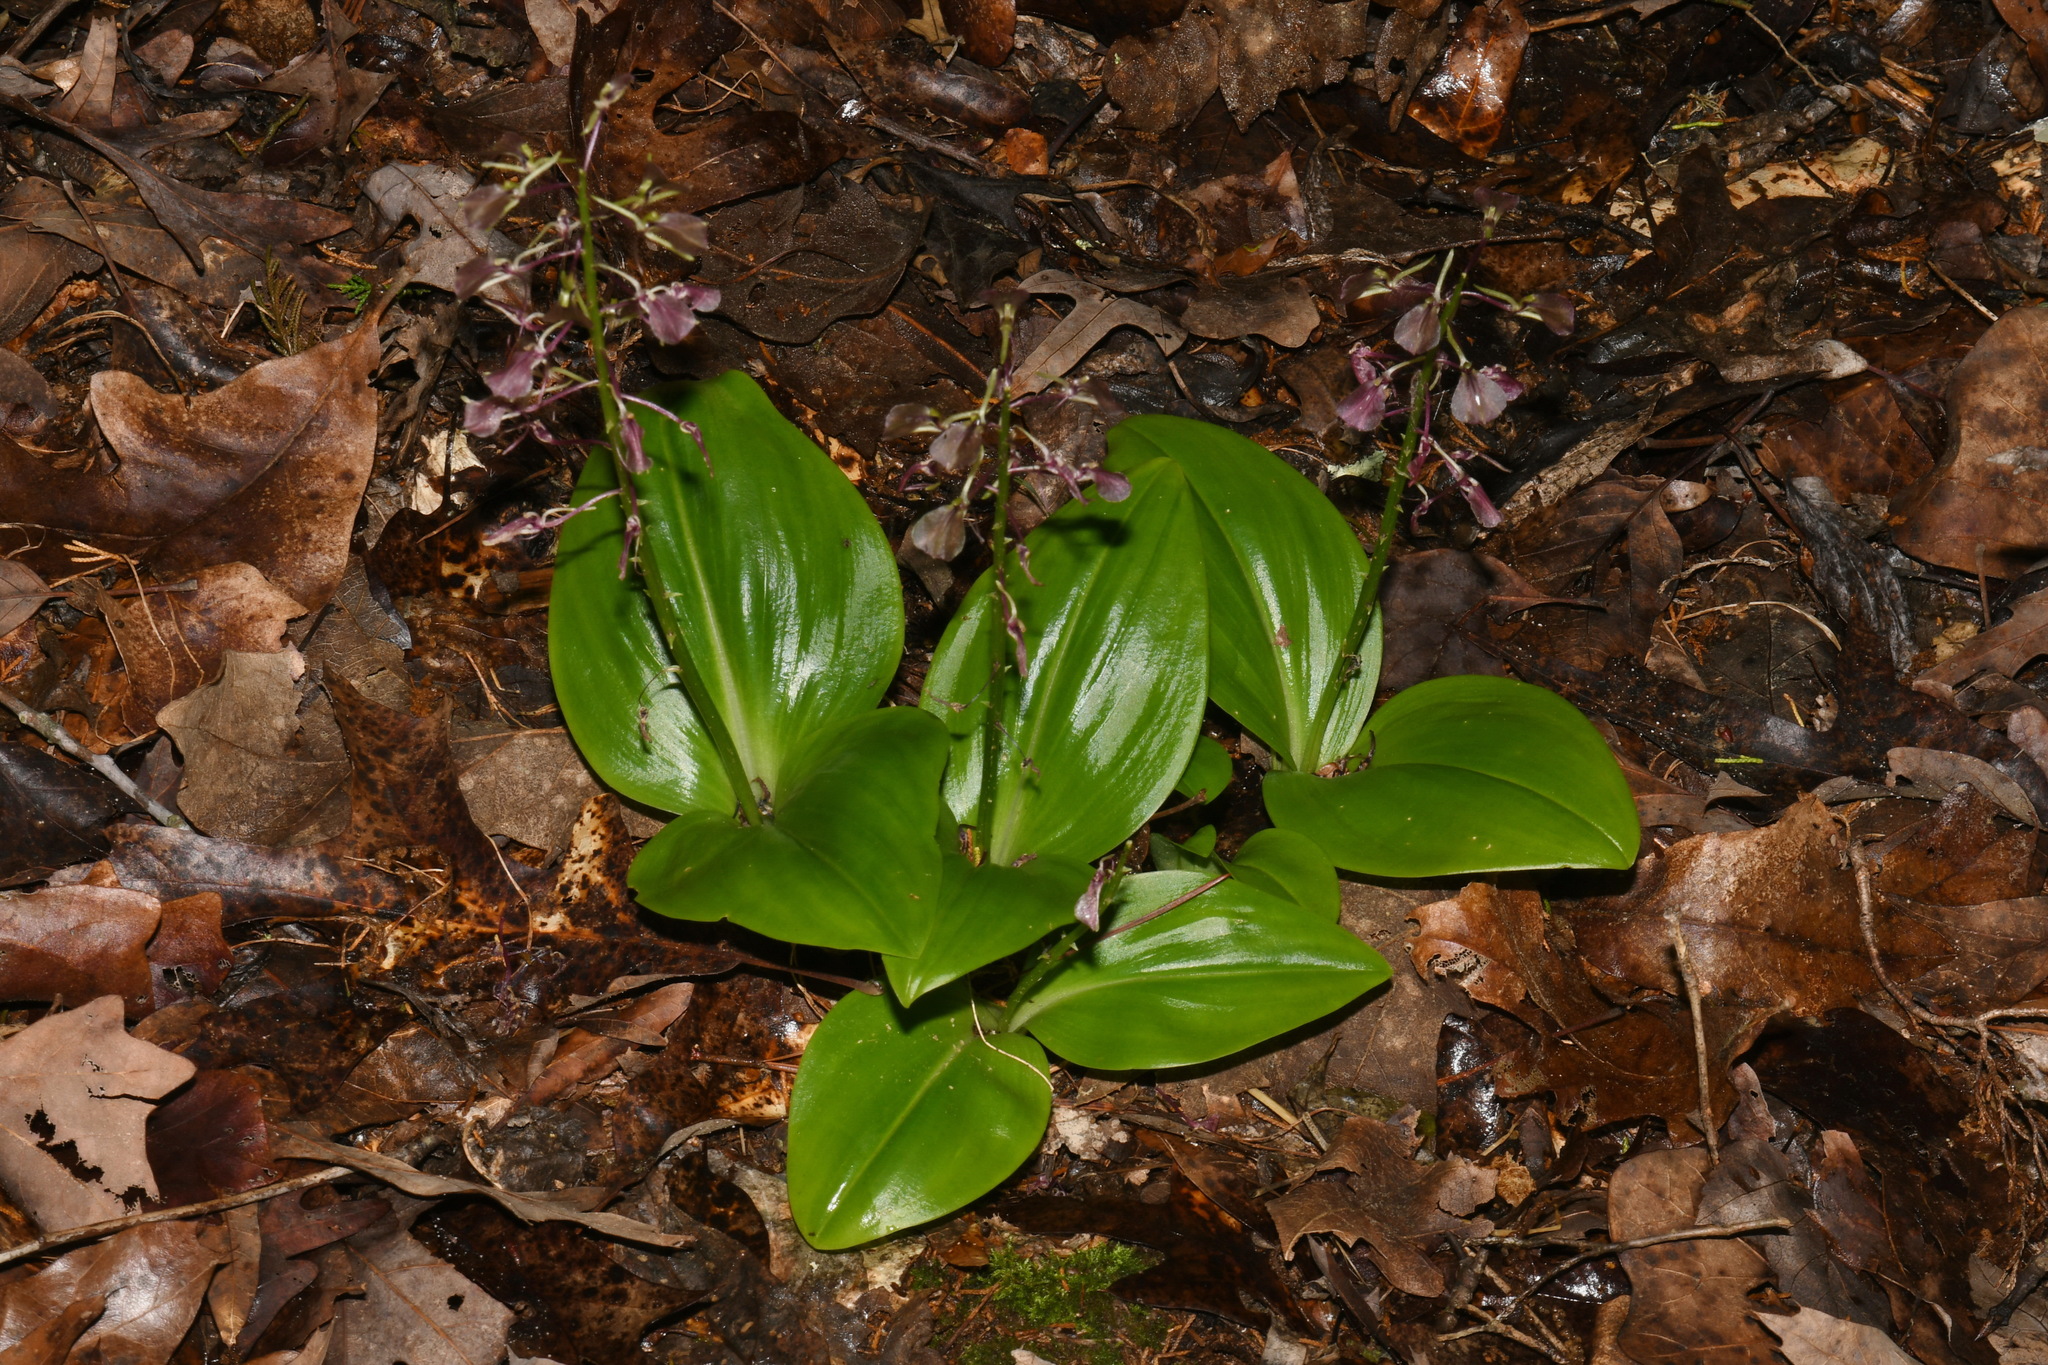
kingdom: Plantae
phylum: Tracheophyta
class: Liliopsida
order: Asparagales
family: Orchidaceae
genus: Liparis
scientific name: Liparis liliifolia
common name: Brown wide-lip orchid
